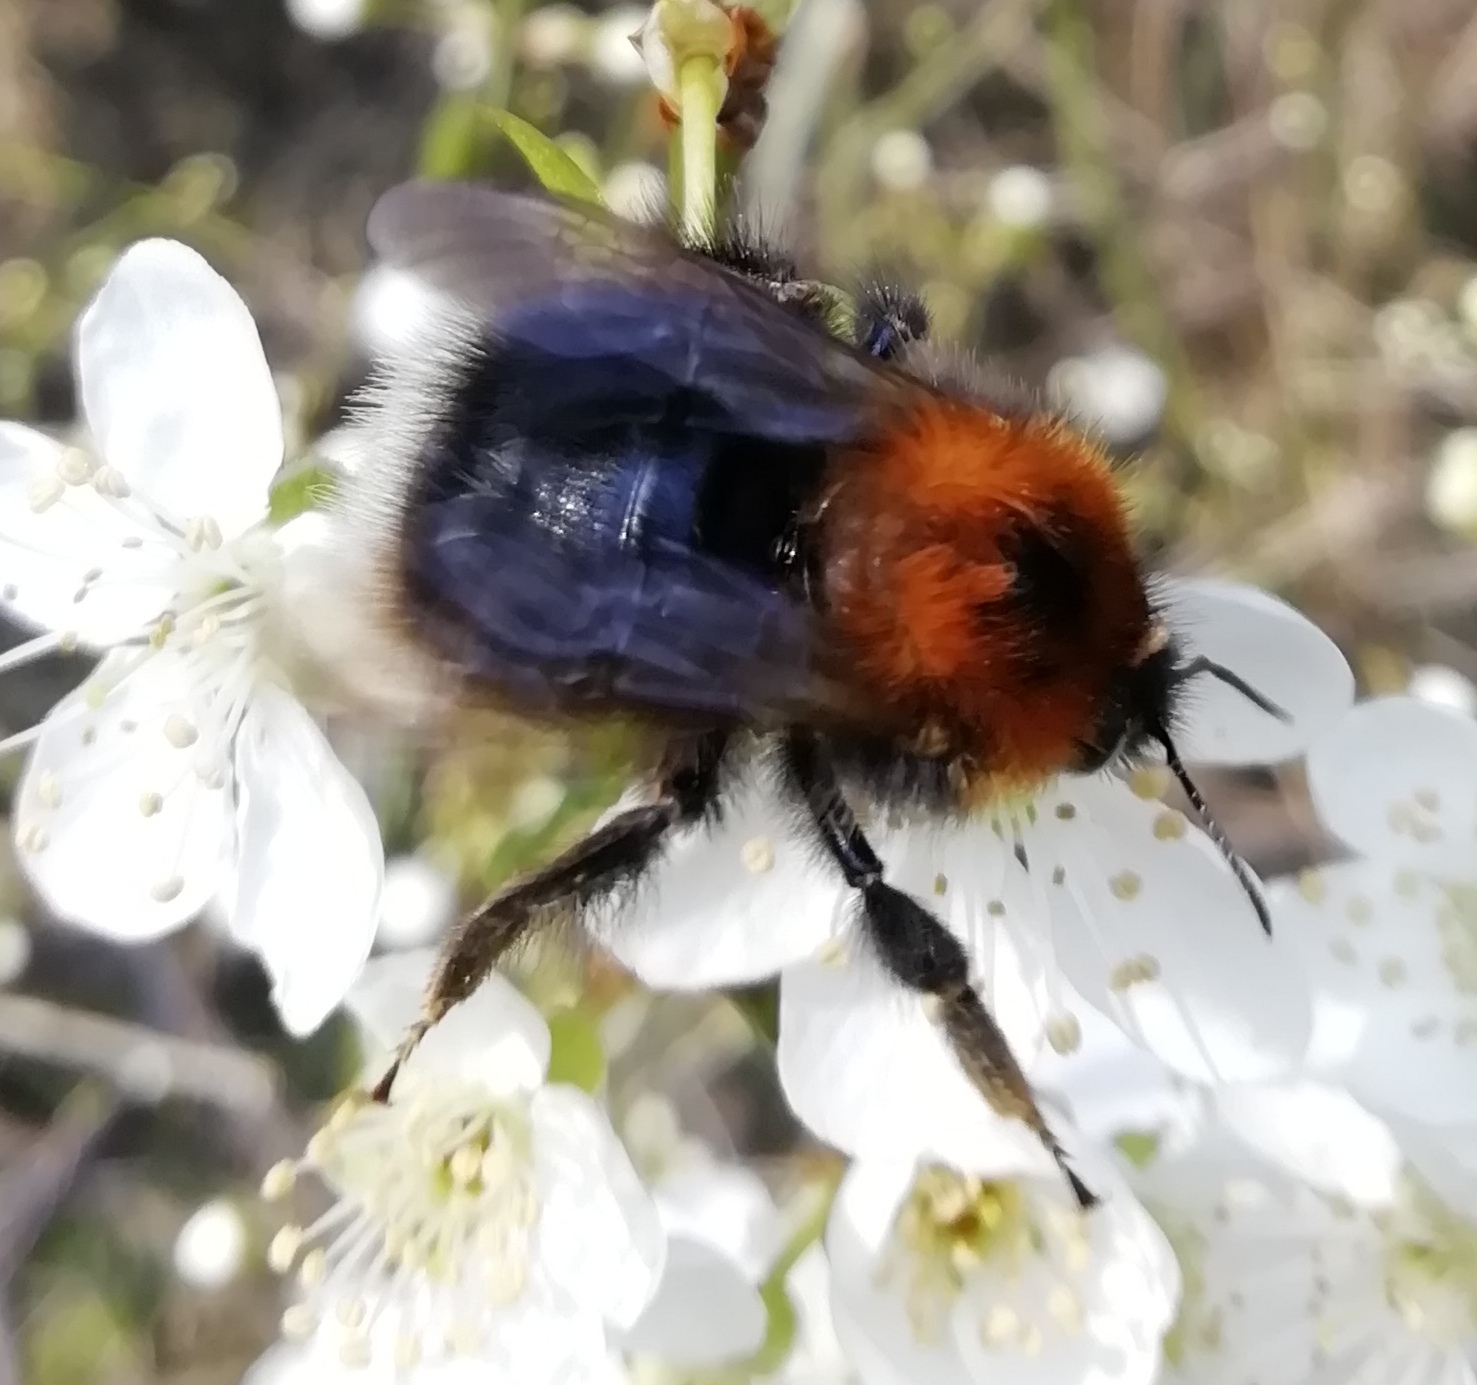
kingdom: Animalia
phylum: Arthropoda
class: Insecta
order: Hymenoptera
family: Apidae
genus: Bombus
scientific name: Bombus hypnorum
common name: New garden bumblebee
